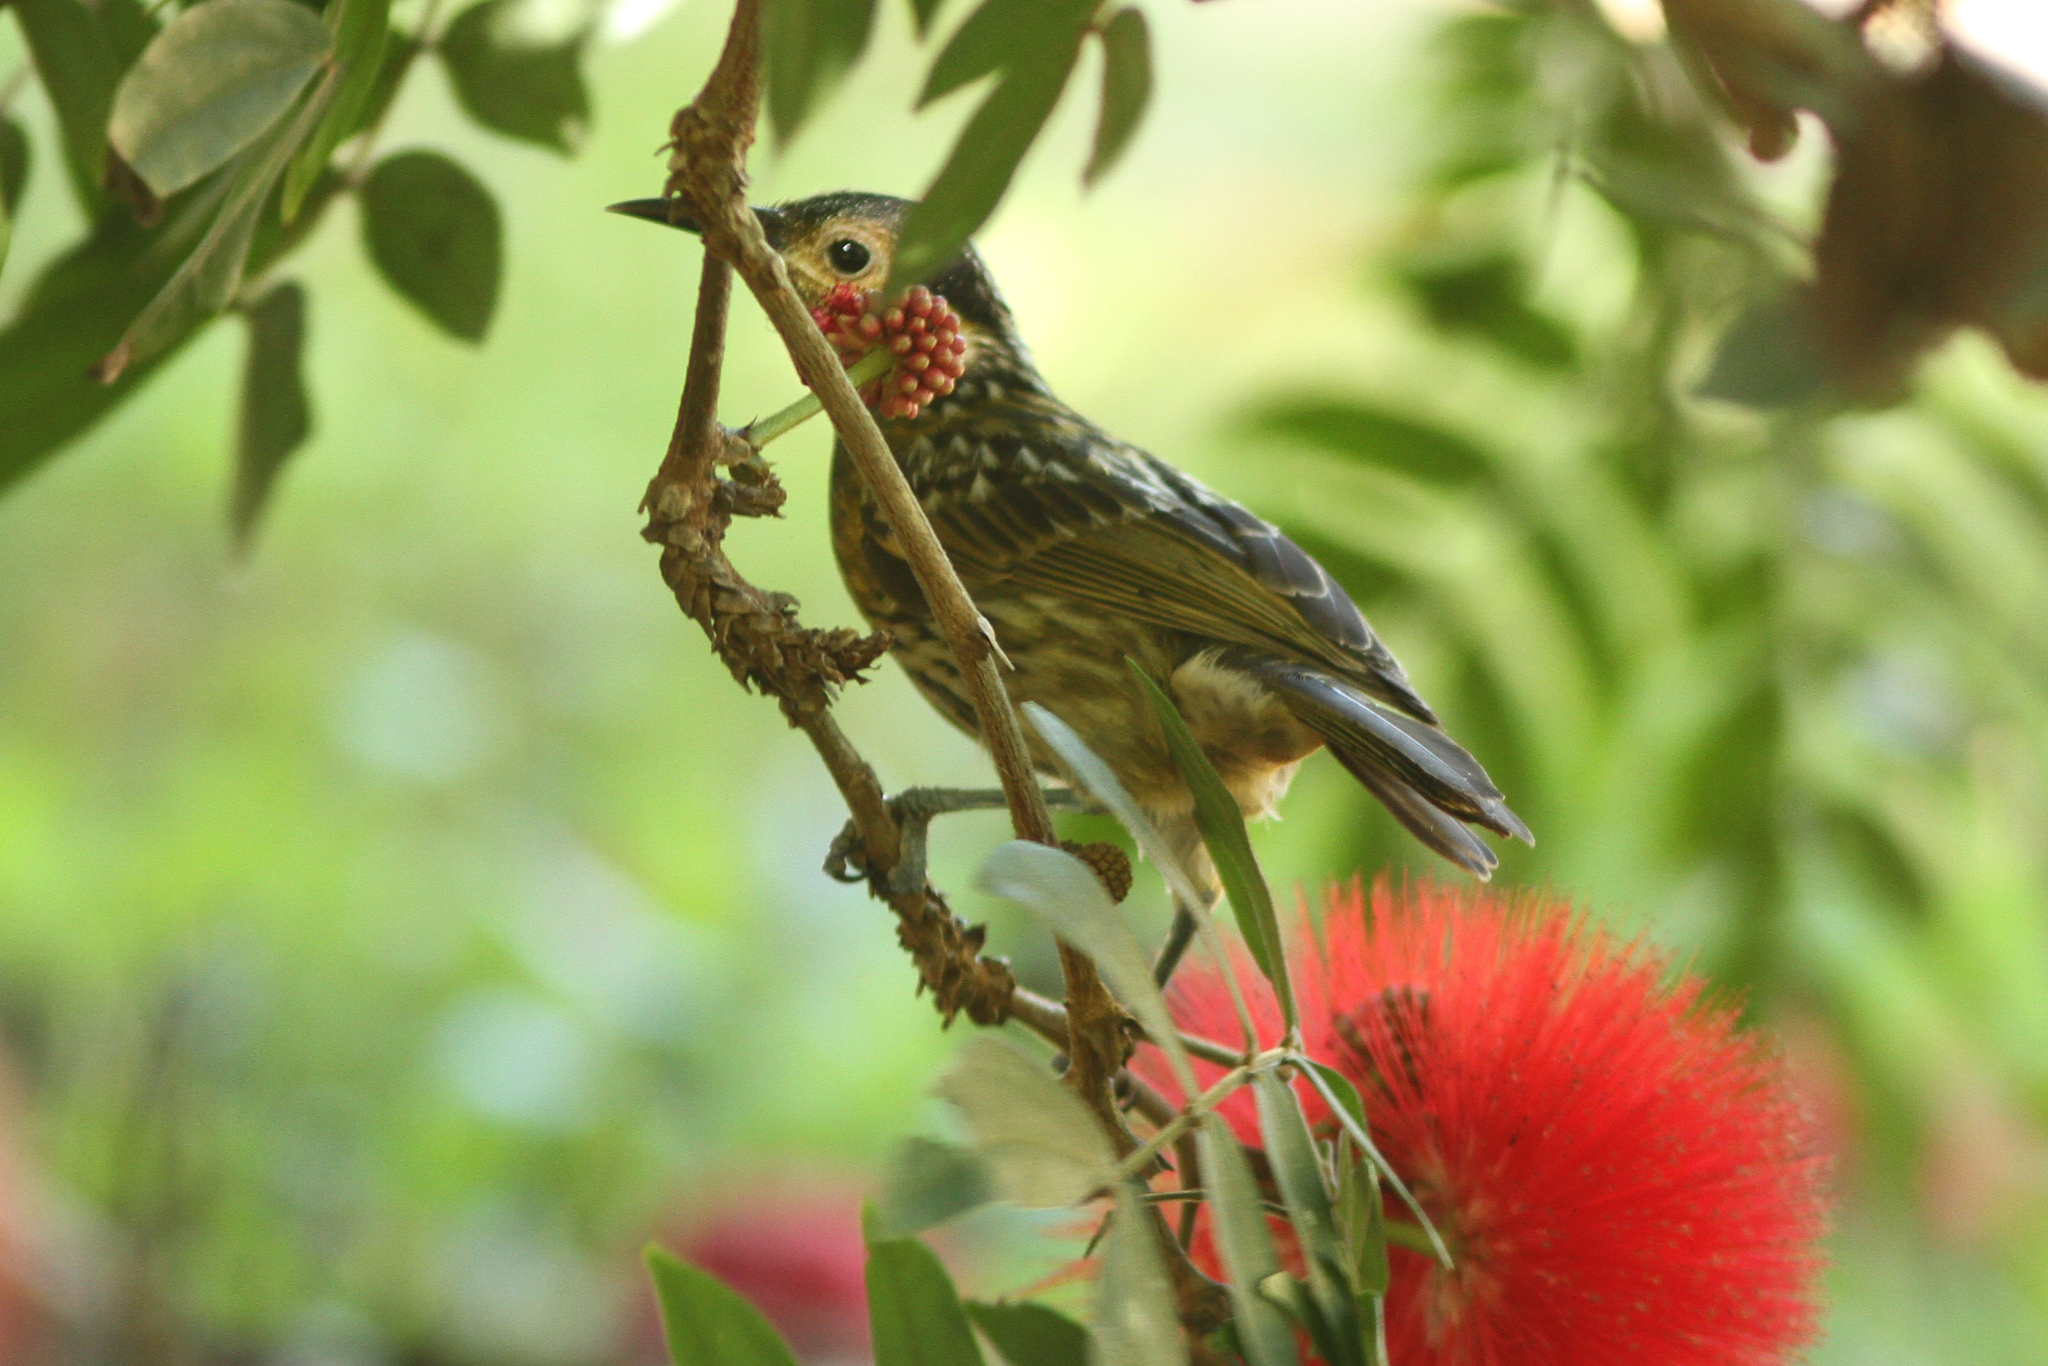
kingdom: Animalia
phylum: Chordata
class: Aves
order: Passeriformes
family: Meliphagidae
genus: Xanthotis
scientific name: Xanthotis macleayanus
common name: Macleay's honeyeater
